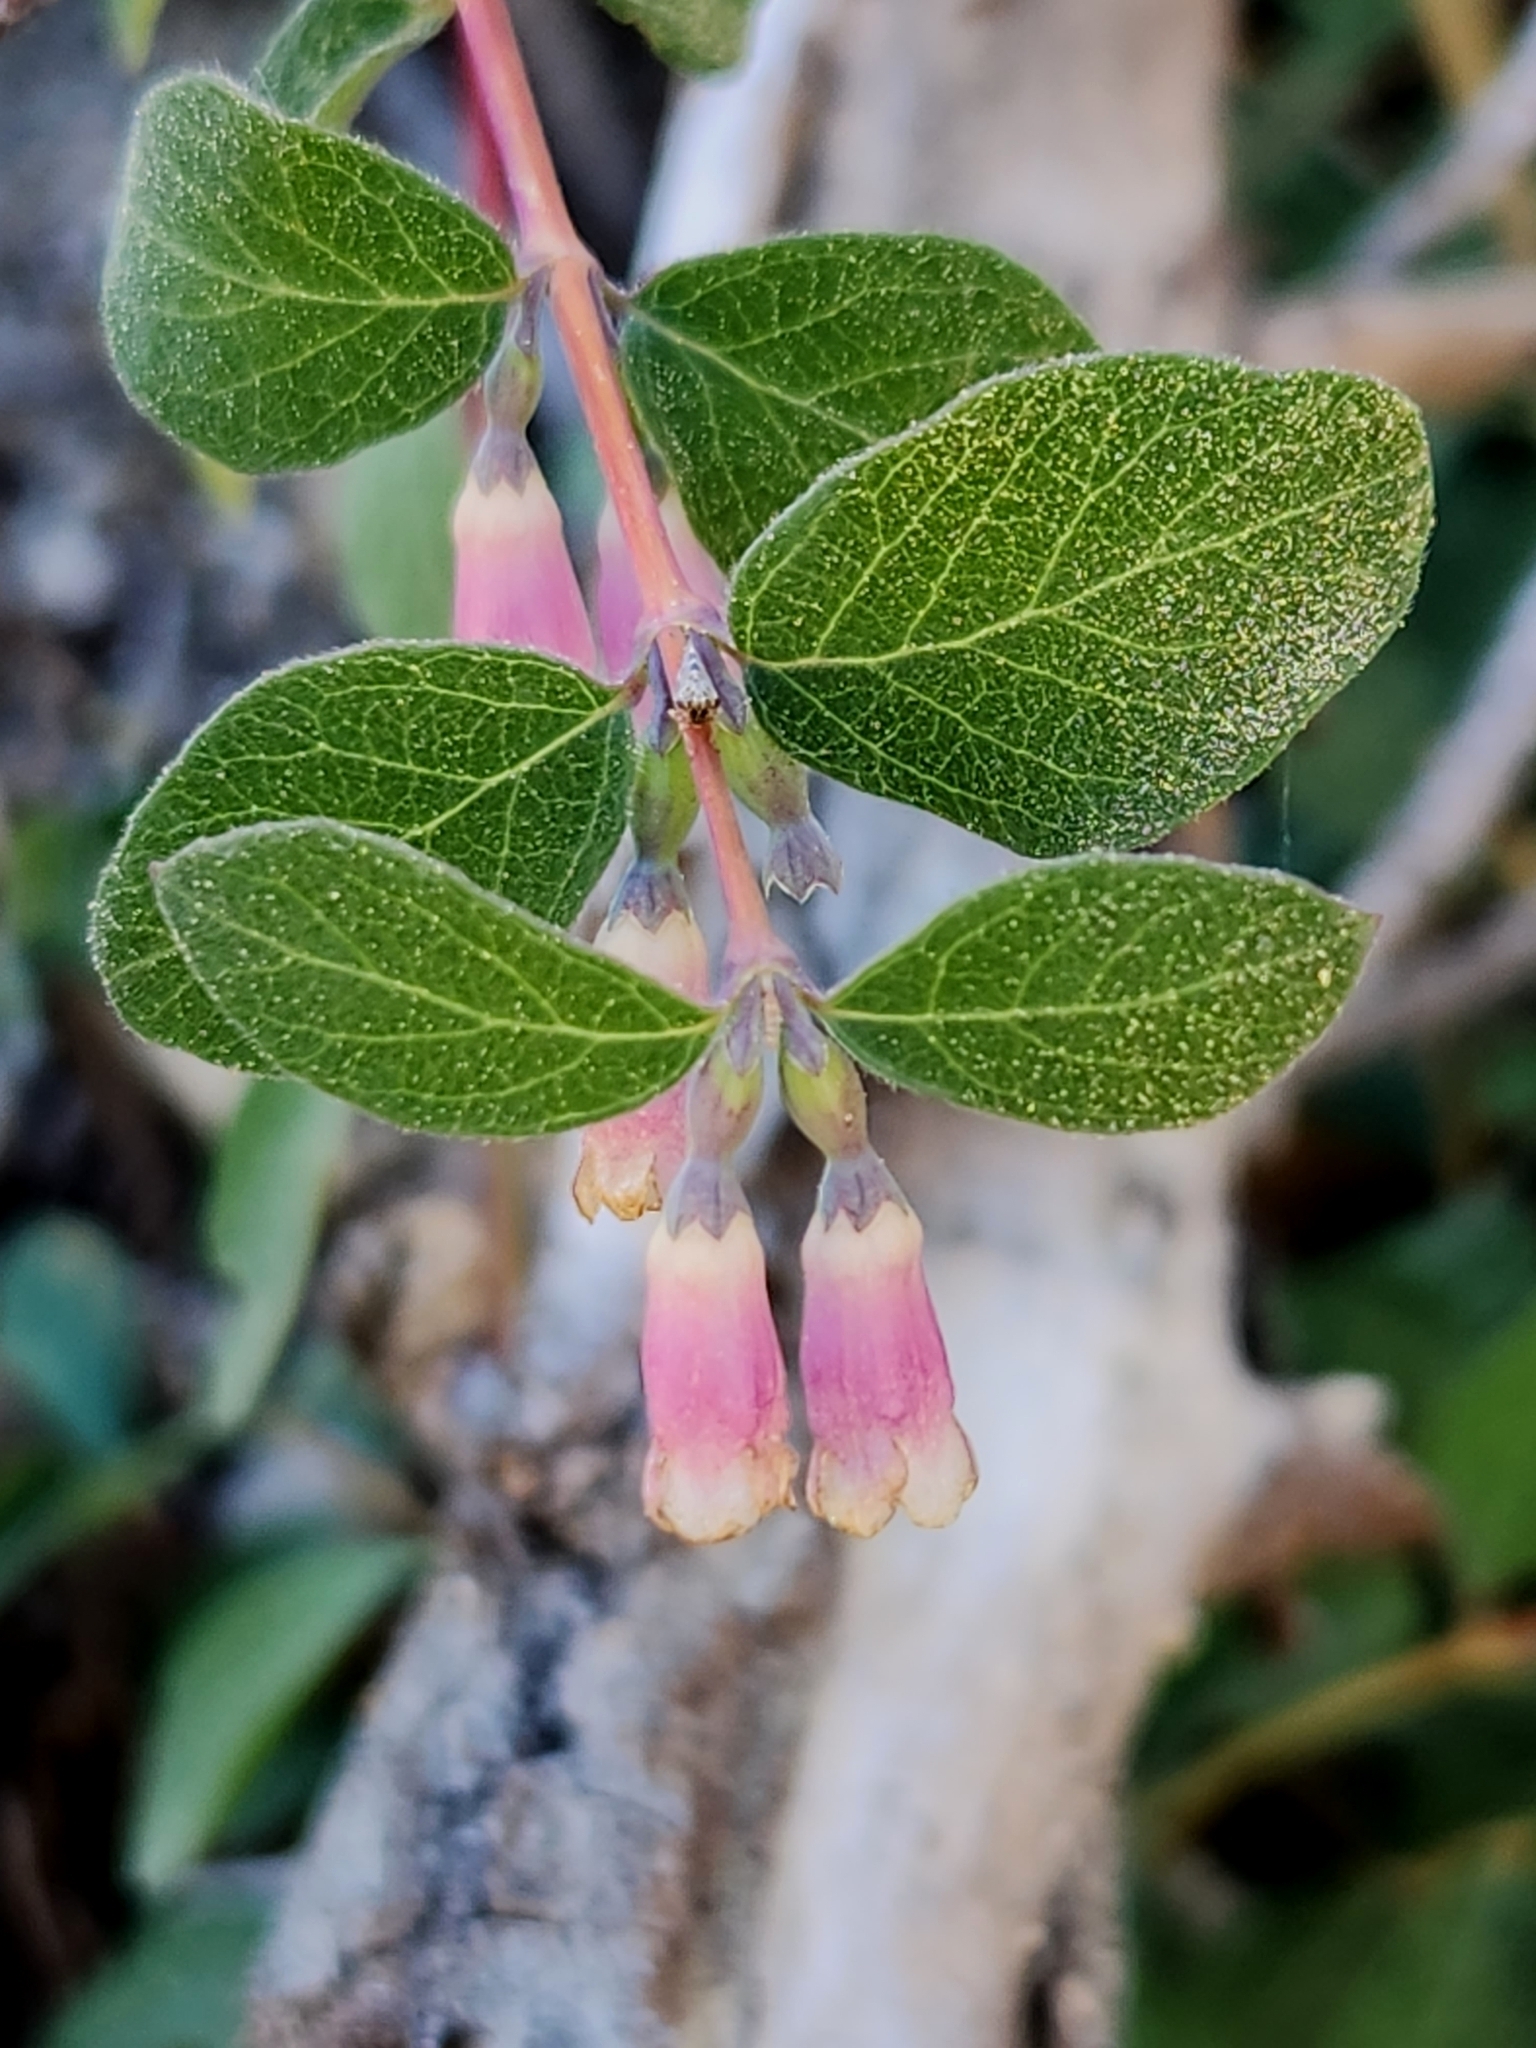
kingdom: Plantae
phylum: Tracheophyta
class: Magnoliopsida
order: Dipsacales
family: Caprifoliaceae
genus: Symphoricarpos
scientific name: Symphoricarpos rotundifolius
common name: Round-leaved snowberry
